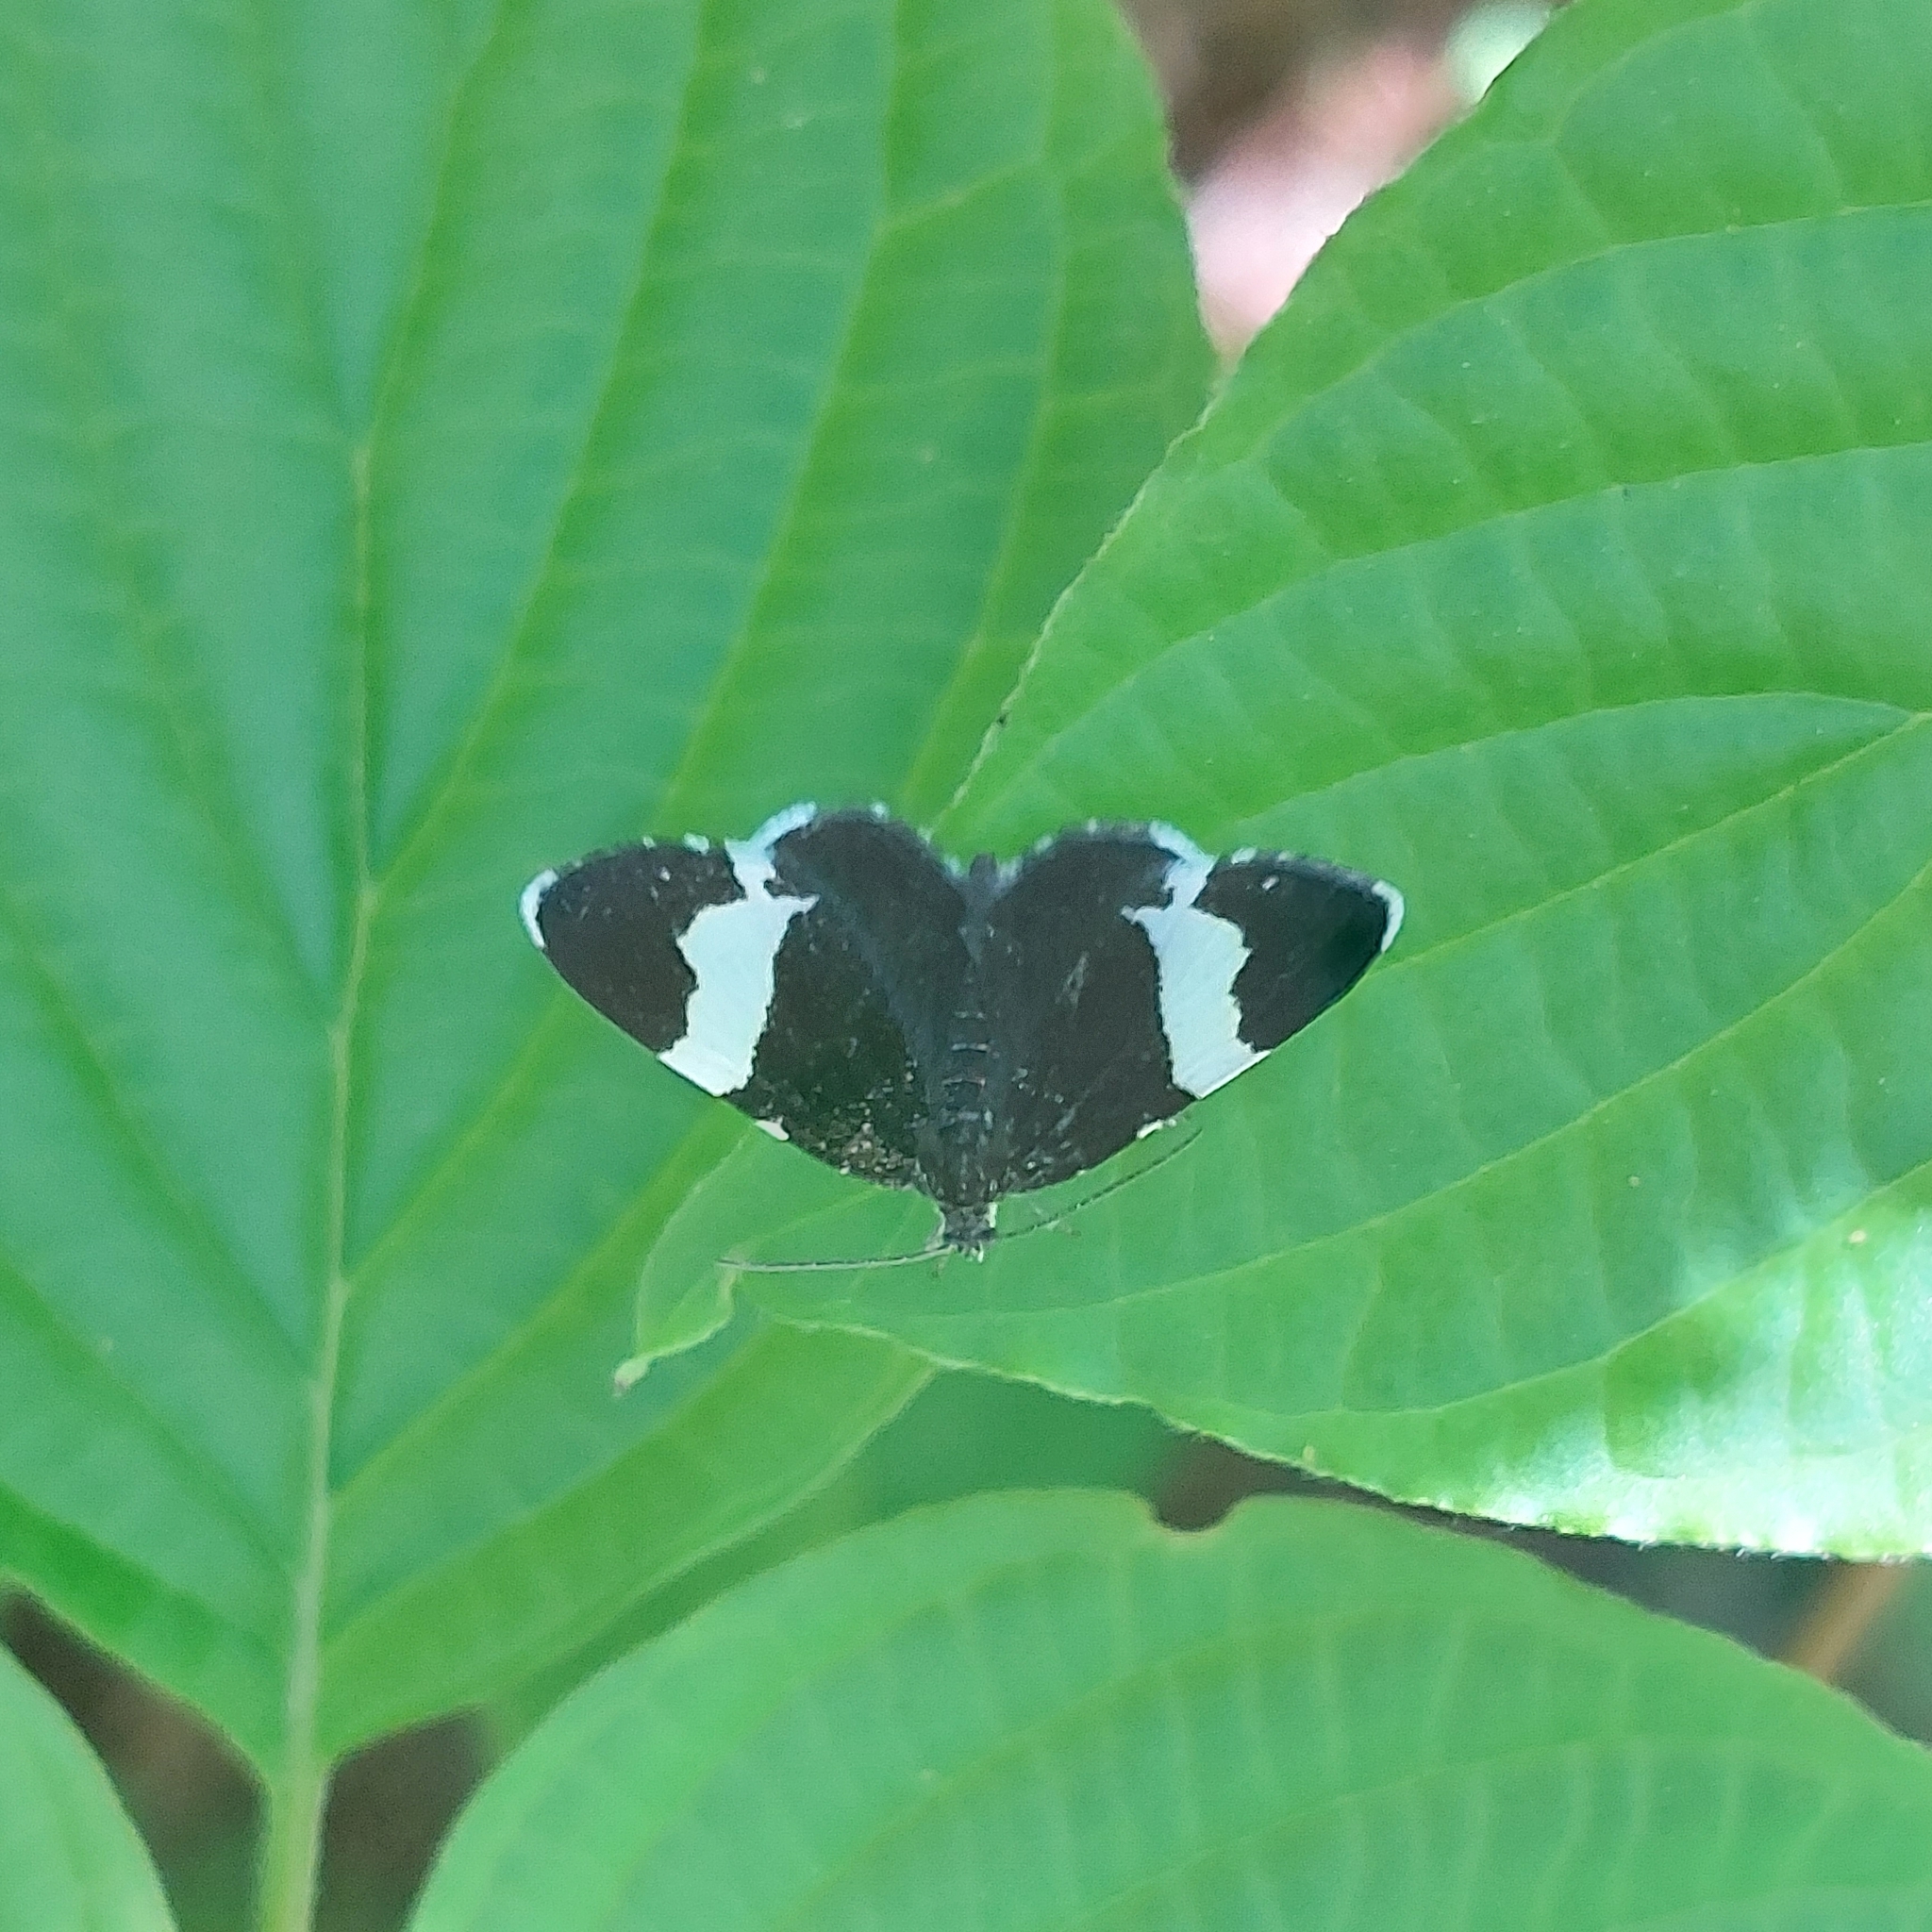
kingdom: Animalia
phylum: Arthropoda
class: Insecta
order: Lepidoptera
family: Geometridae
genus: Trichodezia
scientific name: Trichodezia albovittata
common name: White striped black
